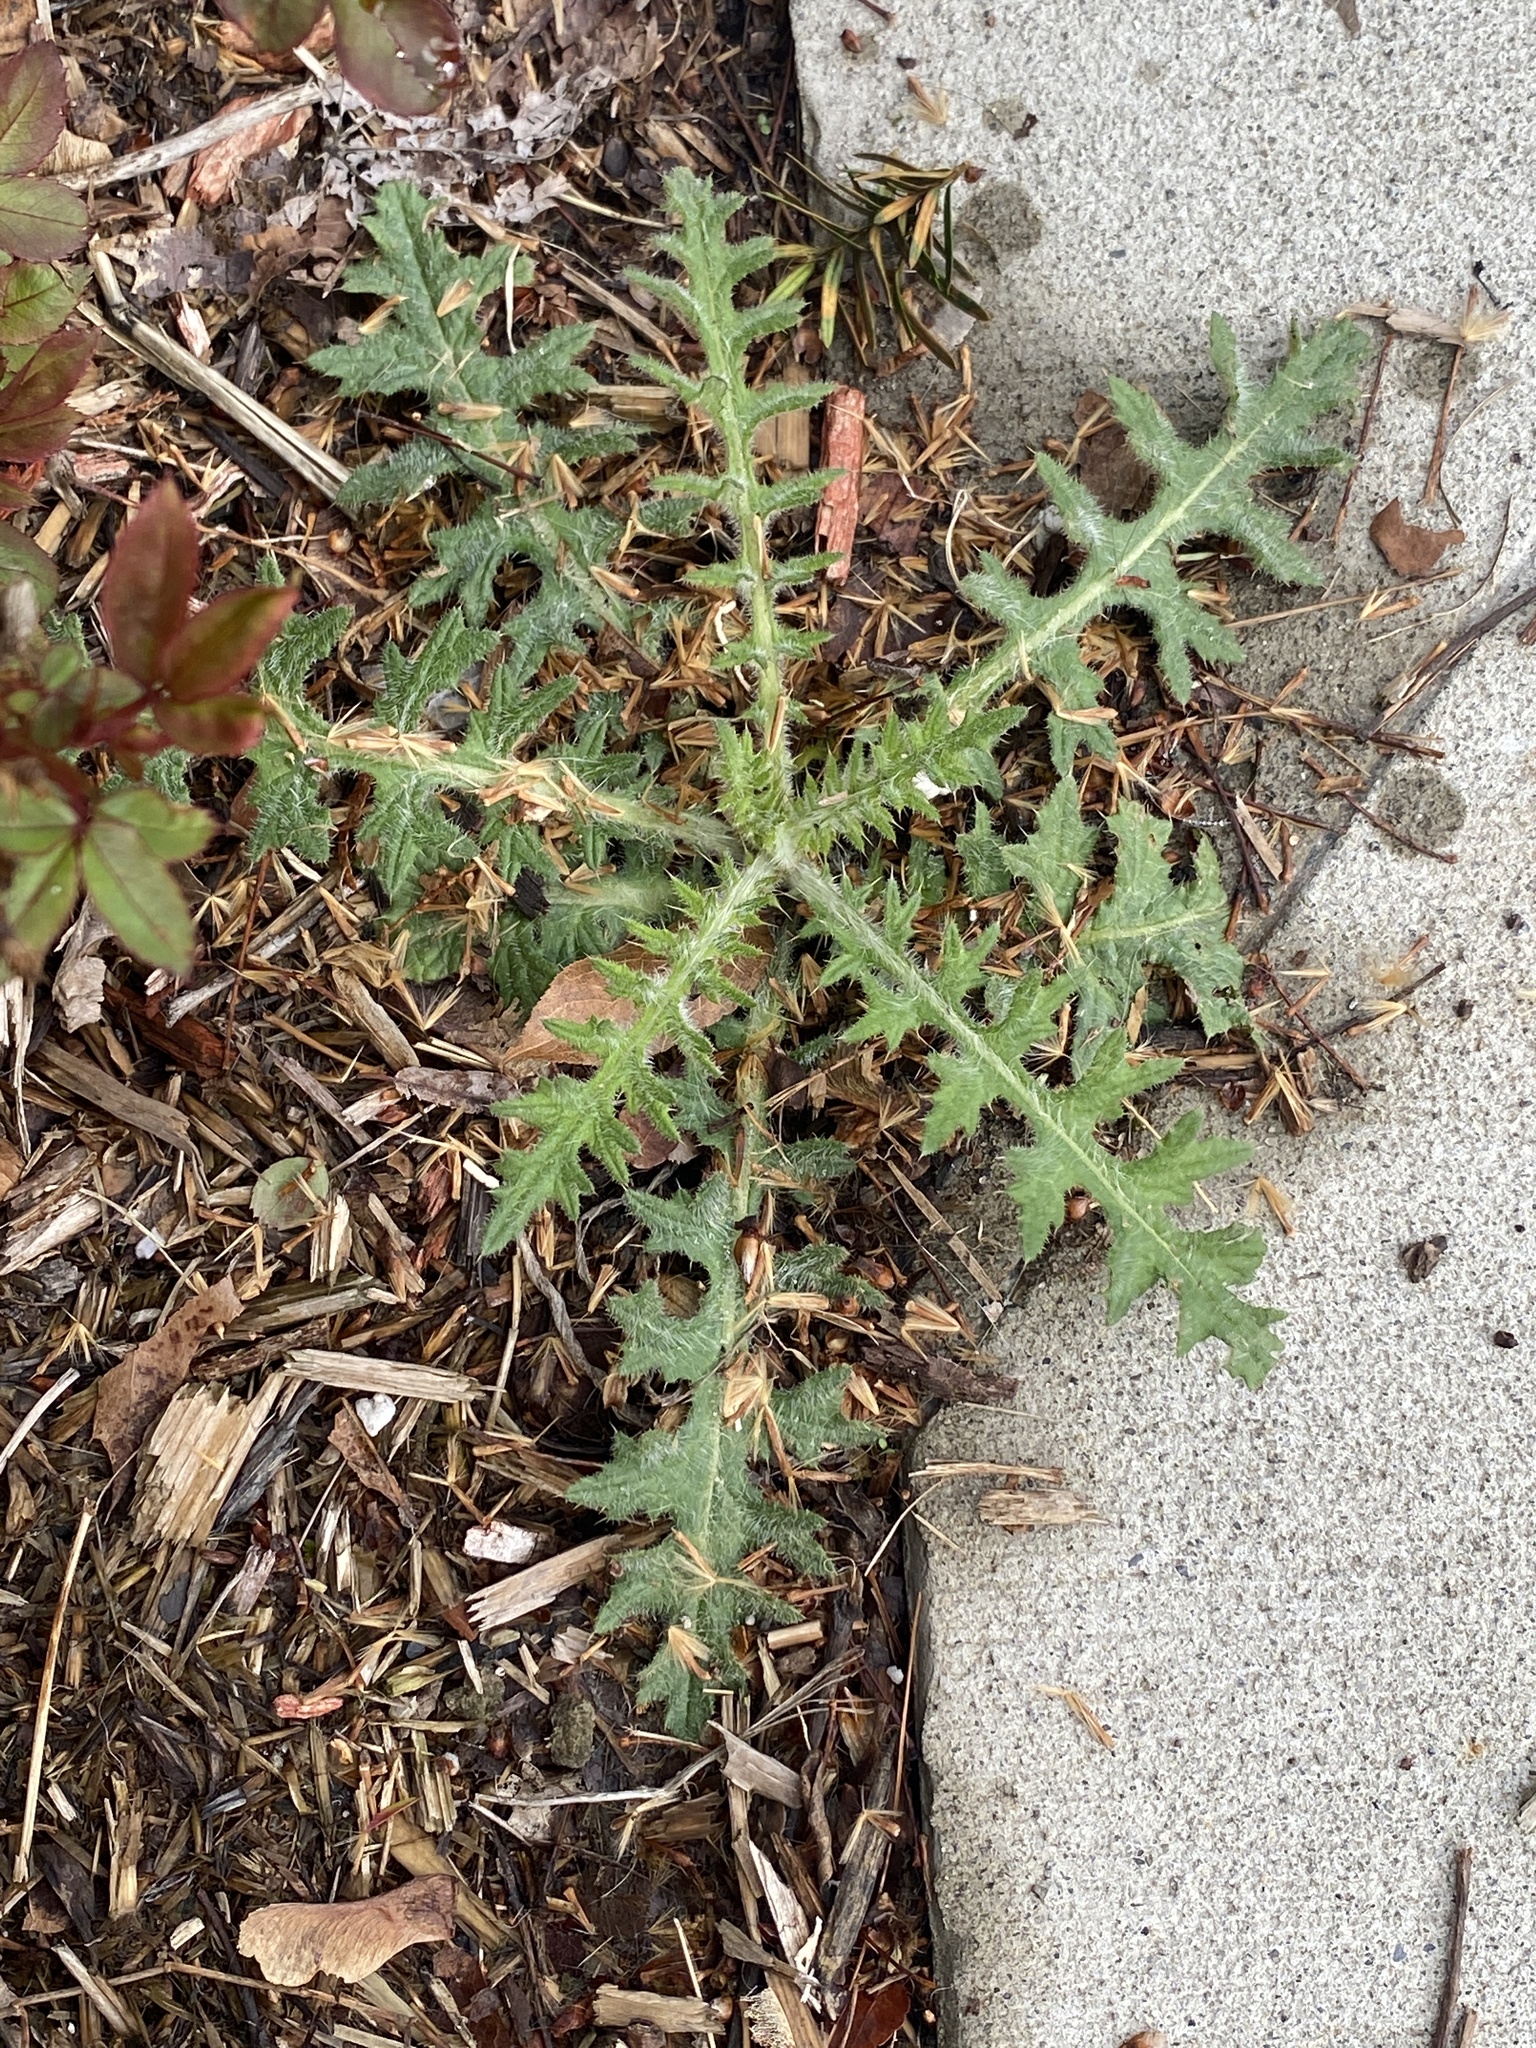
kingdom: Plantae
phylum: Tracheophyta
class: Magnoliopsida
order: Asterales
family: Asteraceae
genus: Cirsium
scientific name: Cirsium vulgare
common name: Bull thistle
